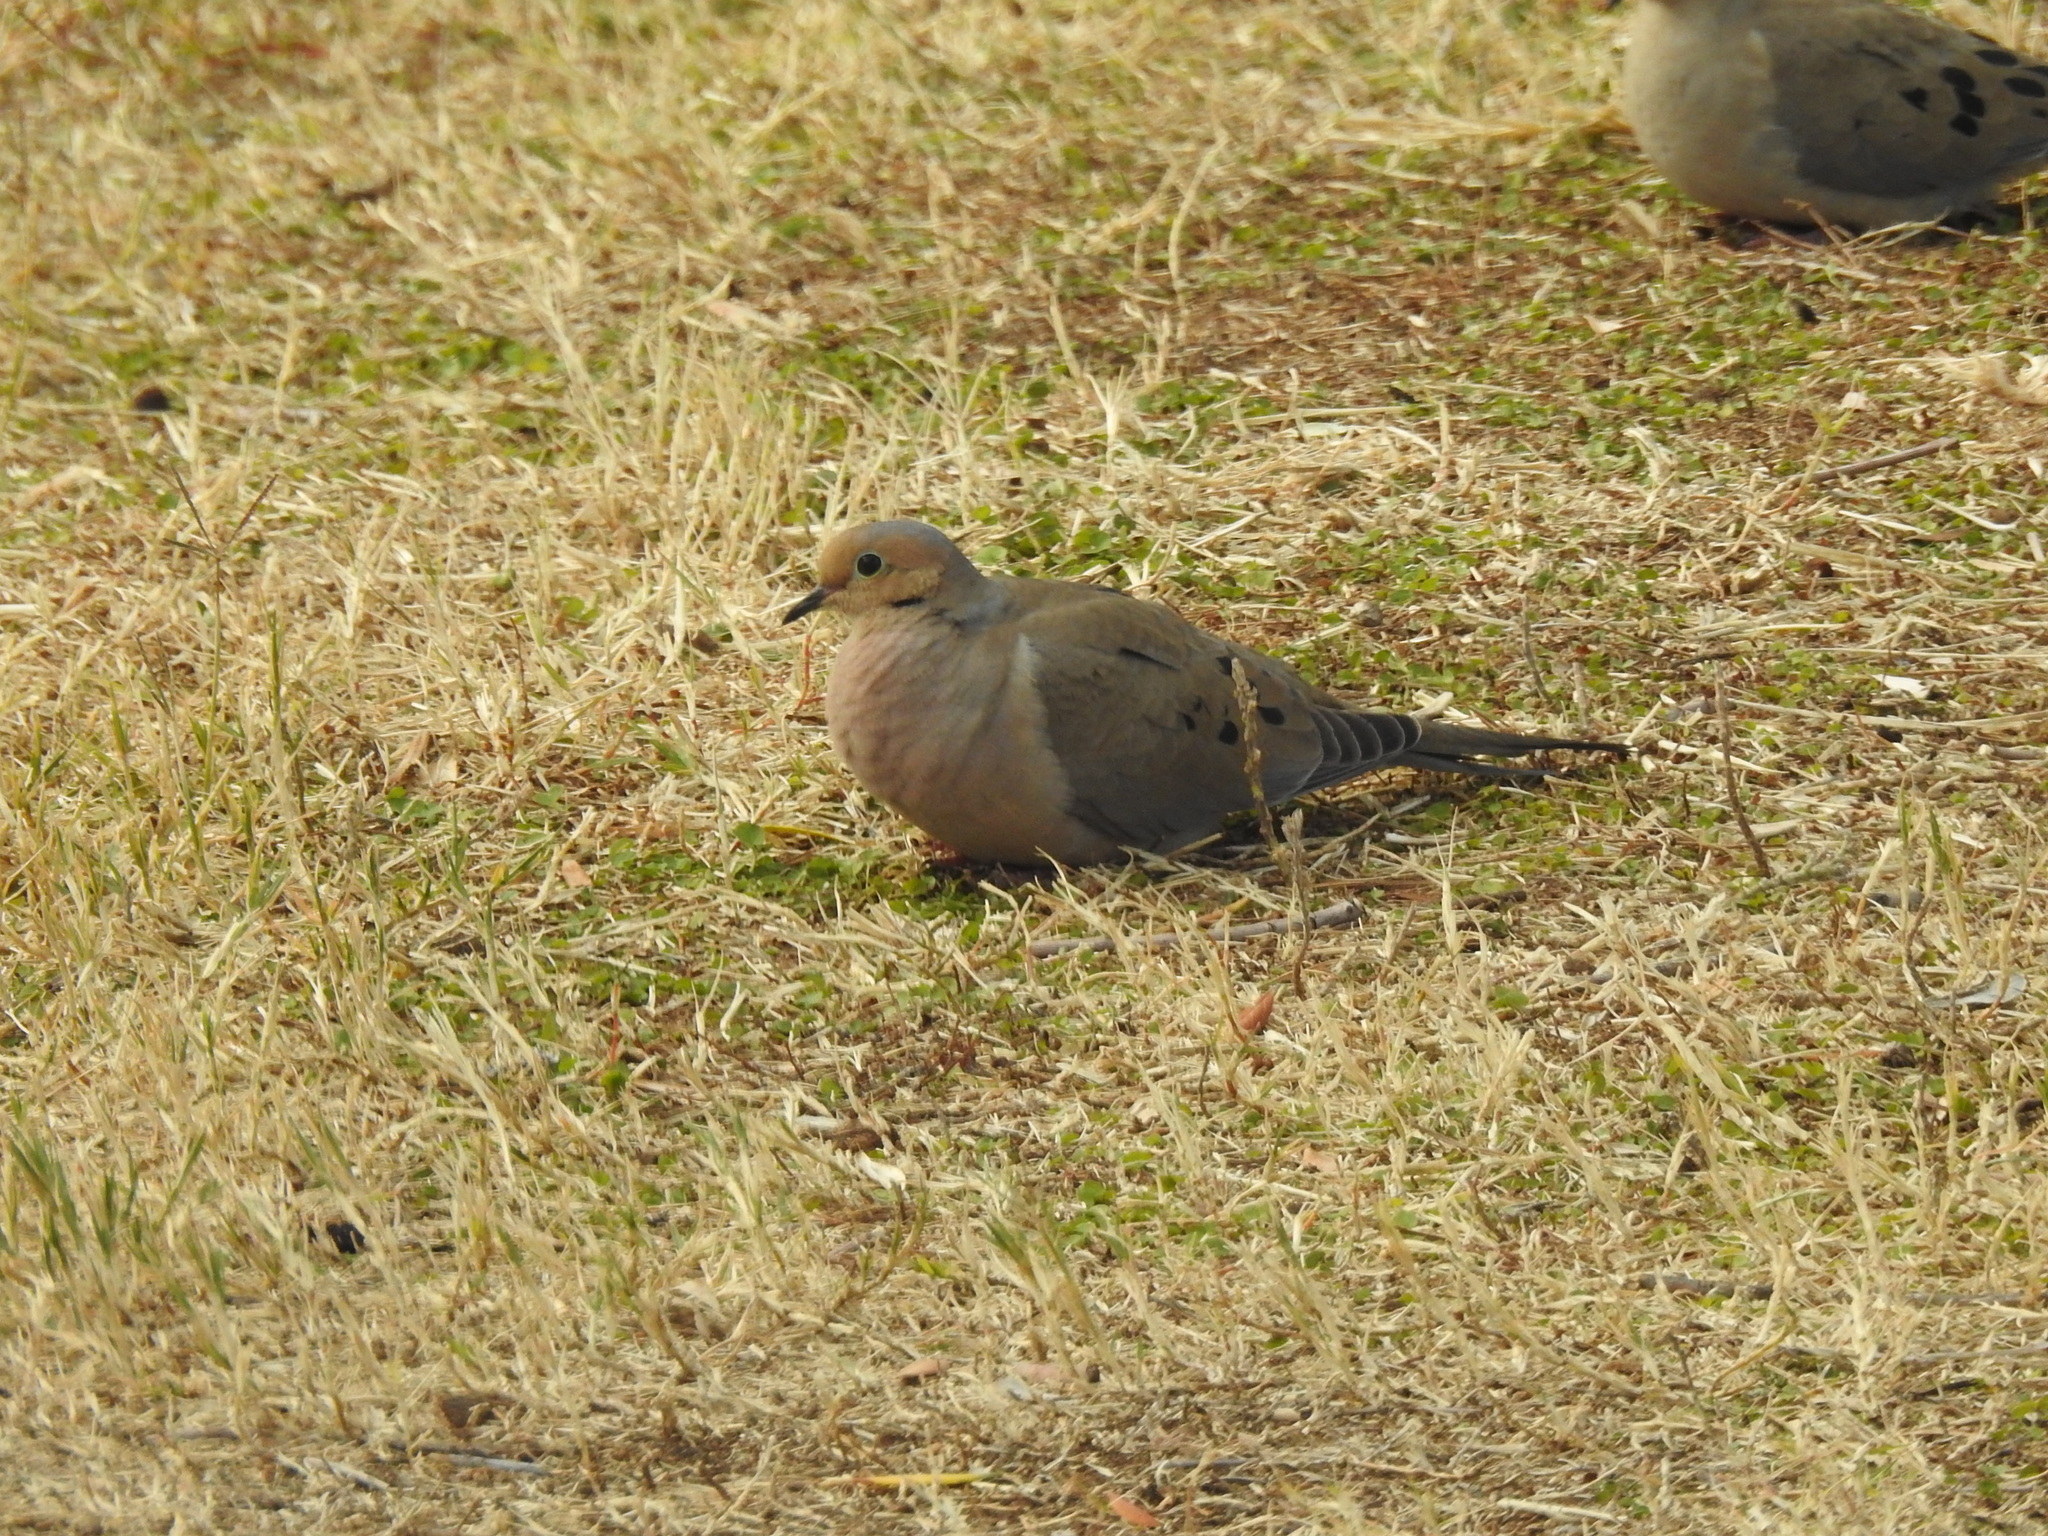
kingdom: Animalia
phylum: Chordata
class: Aves
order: Columbiformes
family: Columbidae
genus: Zenaida
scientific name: Zenaida macroura
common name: Mourning dove
